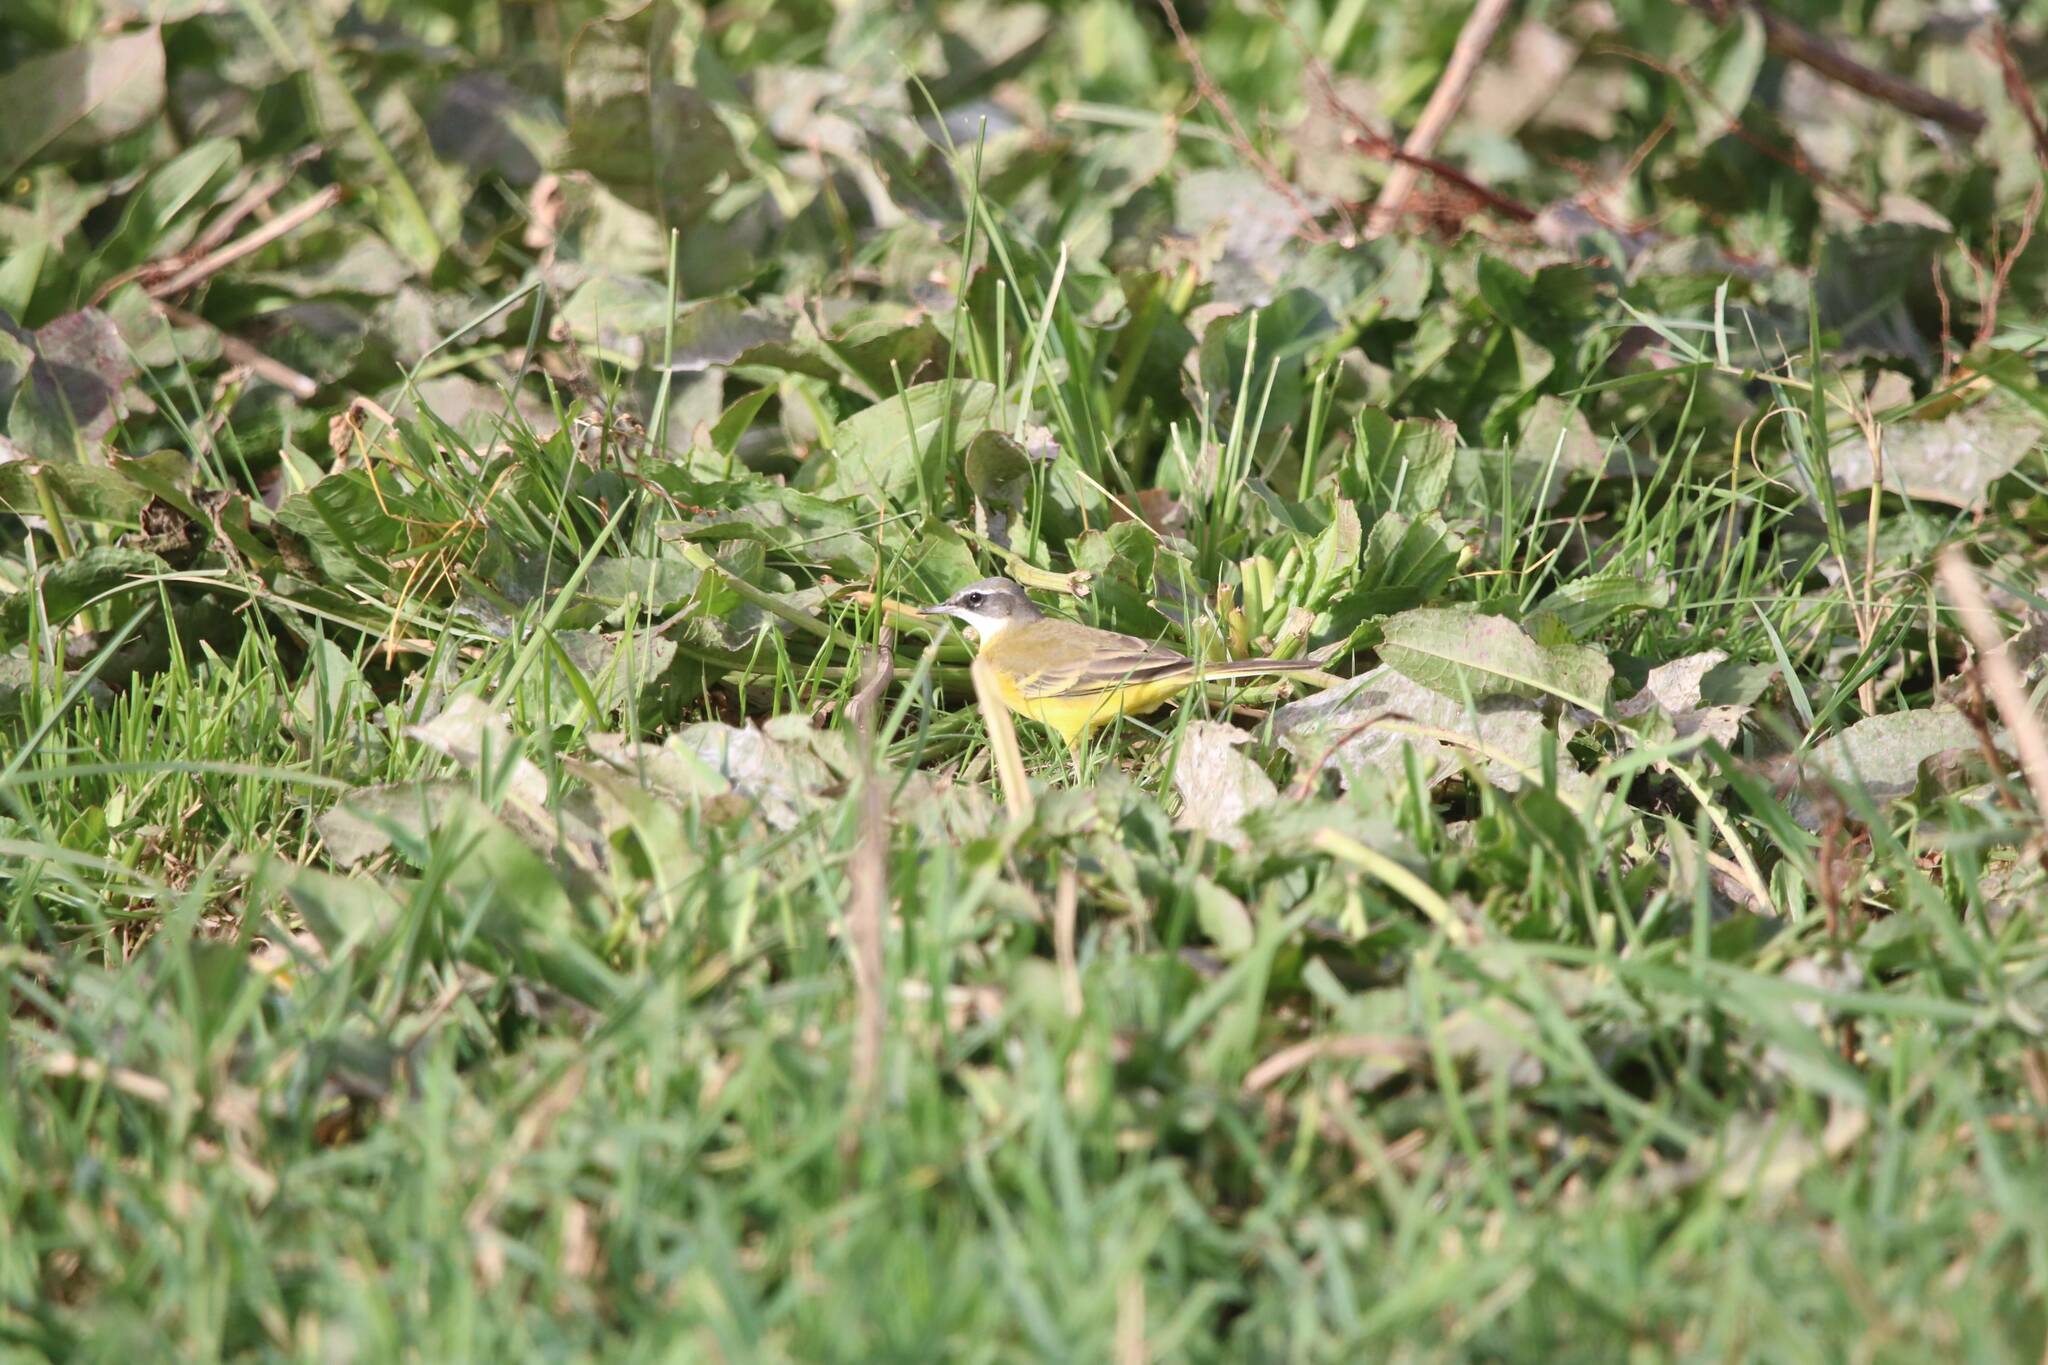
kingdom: Animalia
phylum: Chordata
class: Aves
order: Passeriformes
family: Motacillidae
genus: Motacilla
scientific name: Motacilla flava
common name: Western yellow wagtail
